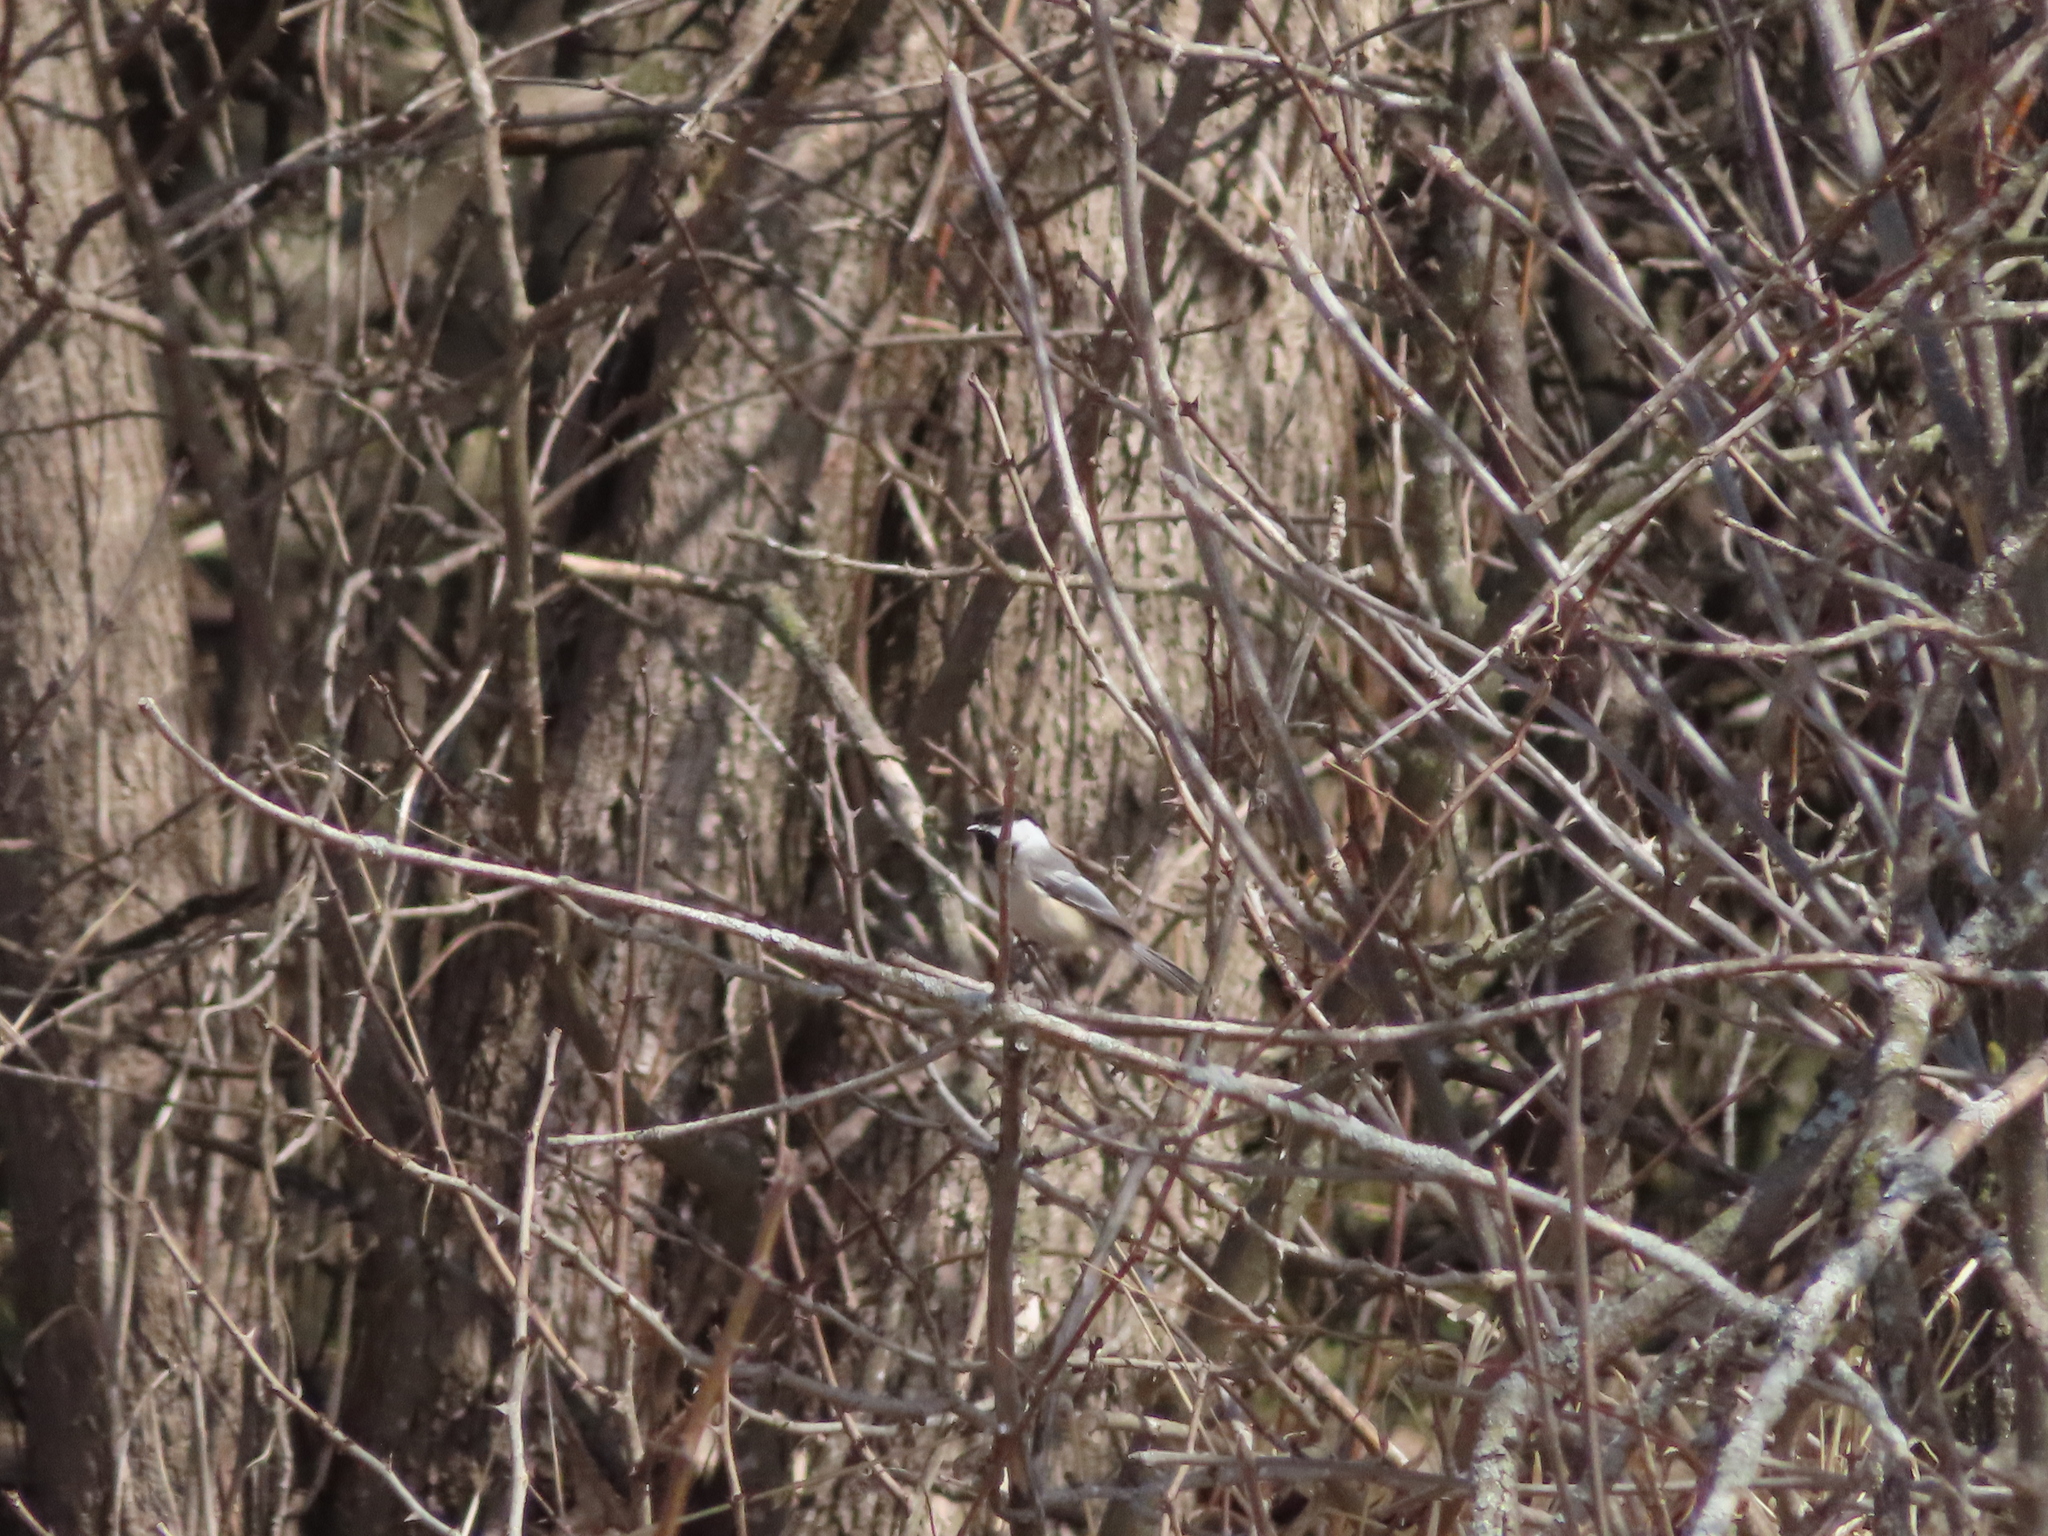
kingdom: Animalia
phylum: Chordata
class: Aves
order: Passeriformes
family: Paridae
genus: Poecile
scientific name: Poecile atricapillus
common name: Black-capped chickadee
